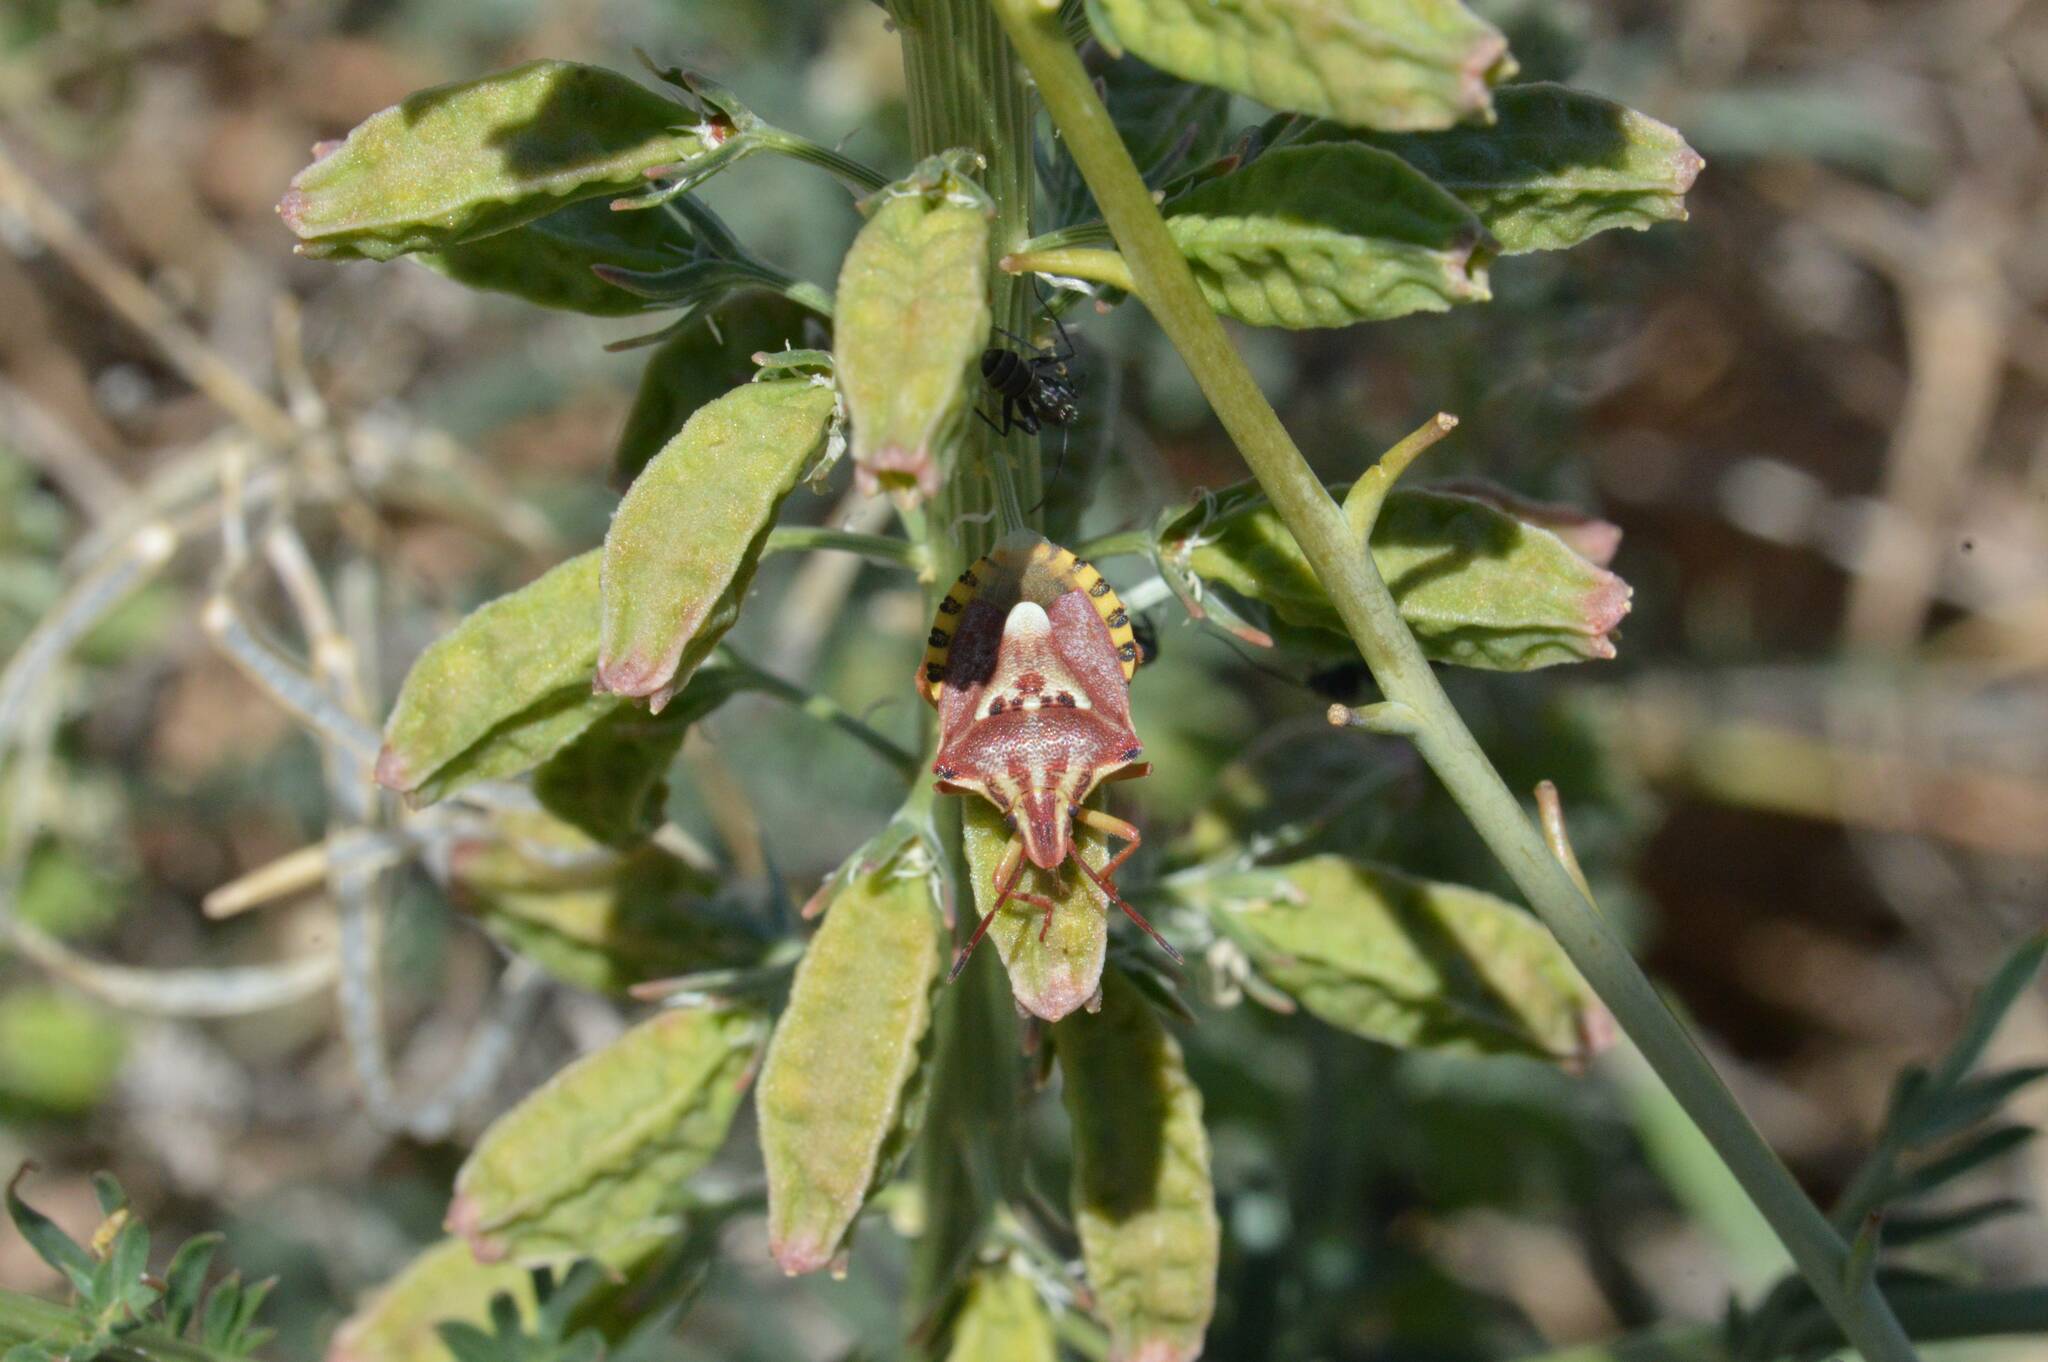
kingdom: Animalia
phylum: Arthropoda
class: Insecta
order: Hemiptera
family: Miridae
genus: Orthops
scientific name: Orthops kalmii
